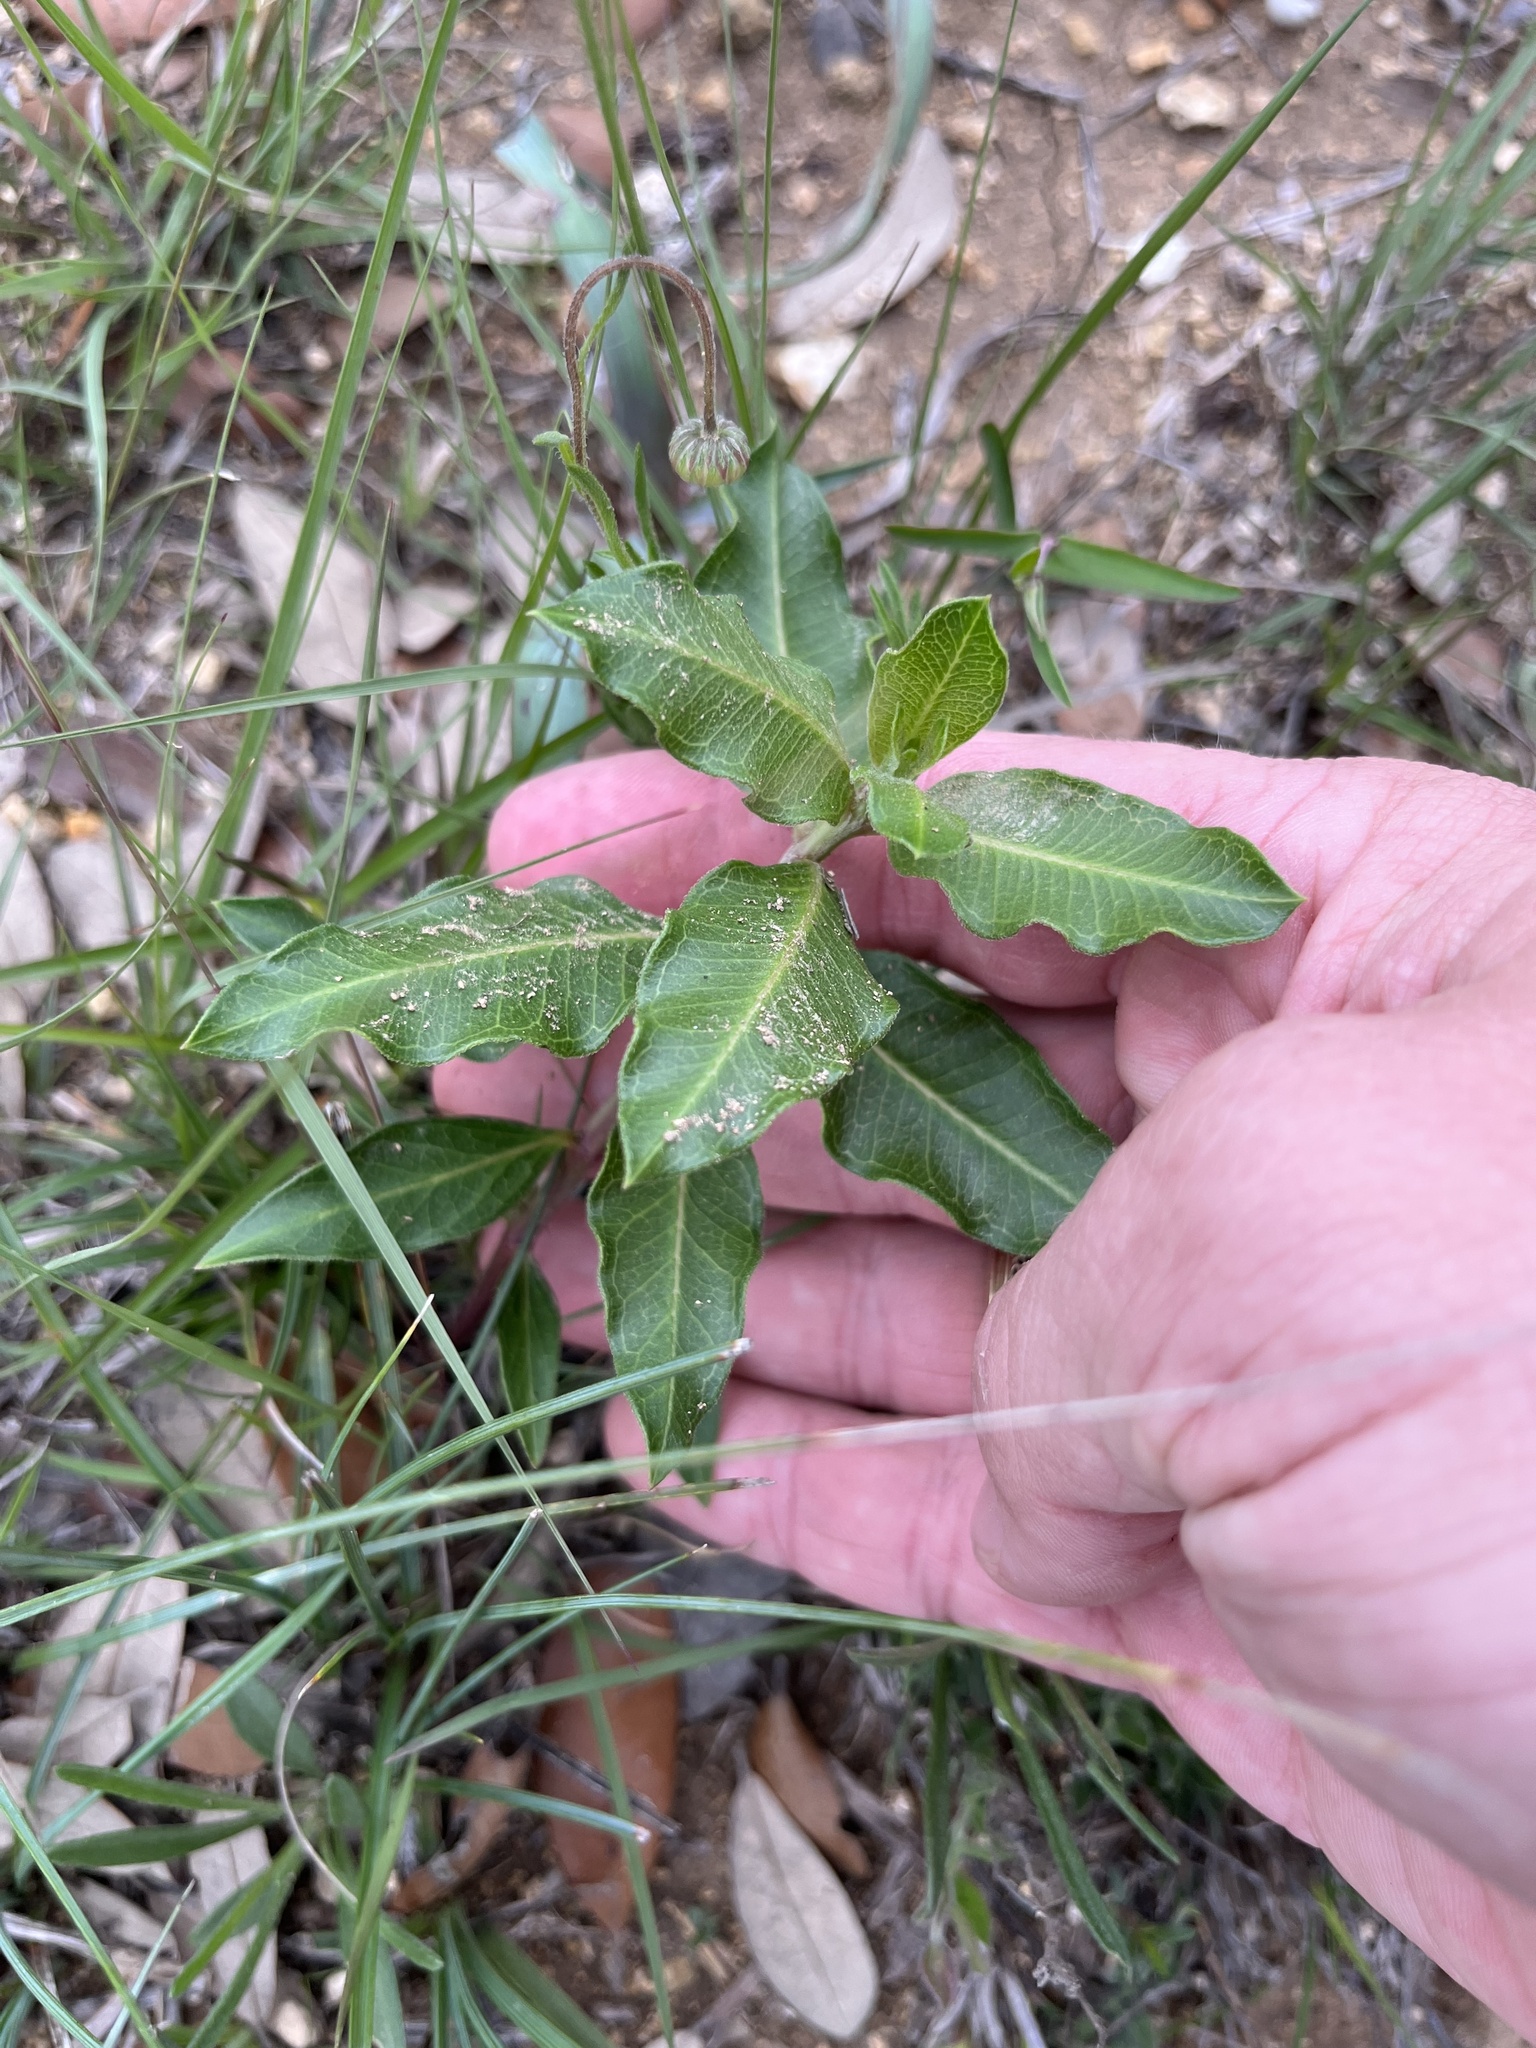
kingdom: Plantae
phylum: Tracheophyta
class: Magnoliopsida
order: Gentianales
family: Apocynaceae
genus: Asclepias
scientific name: Asclepias viridiflora
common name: Green comet milkweed
